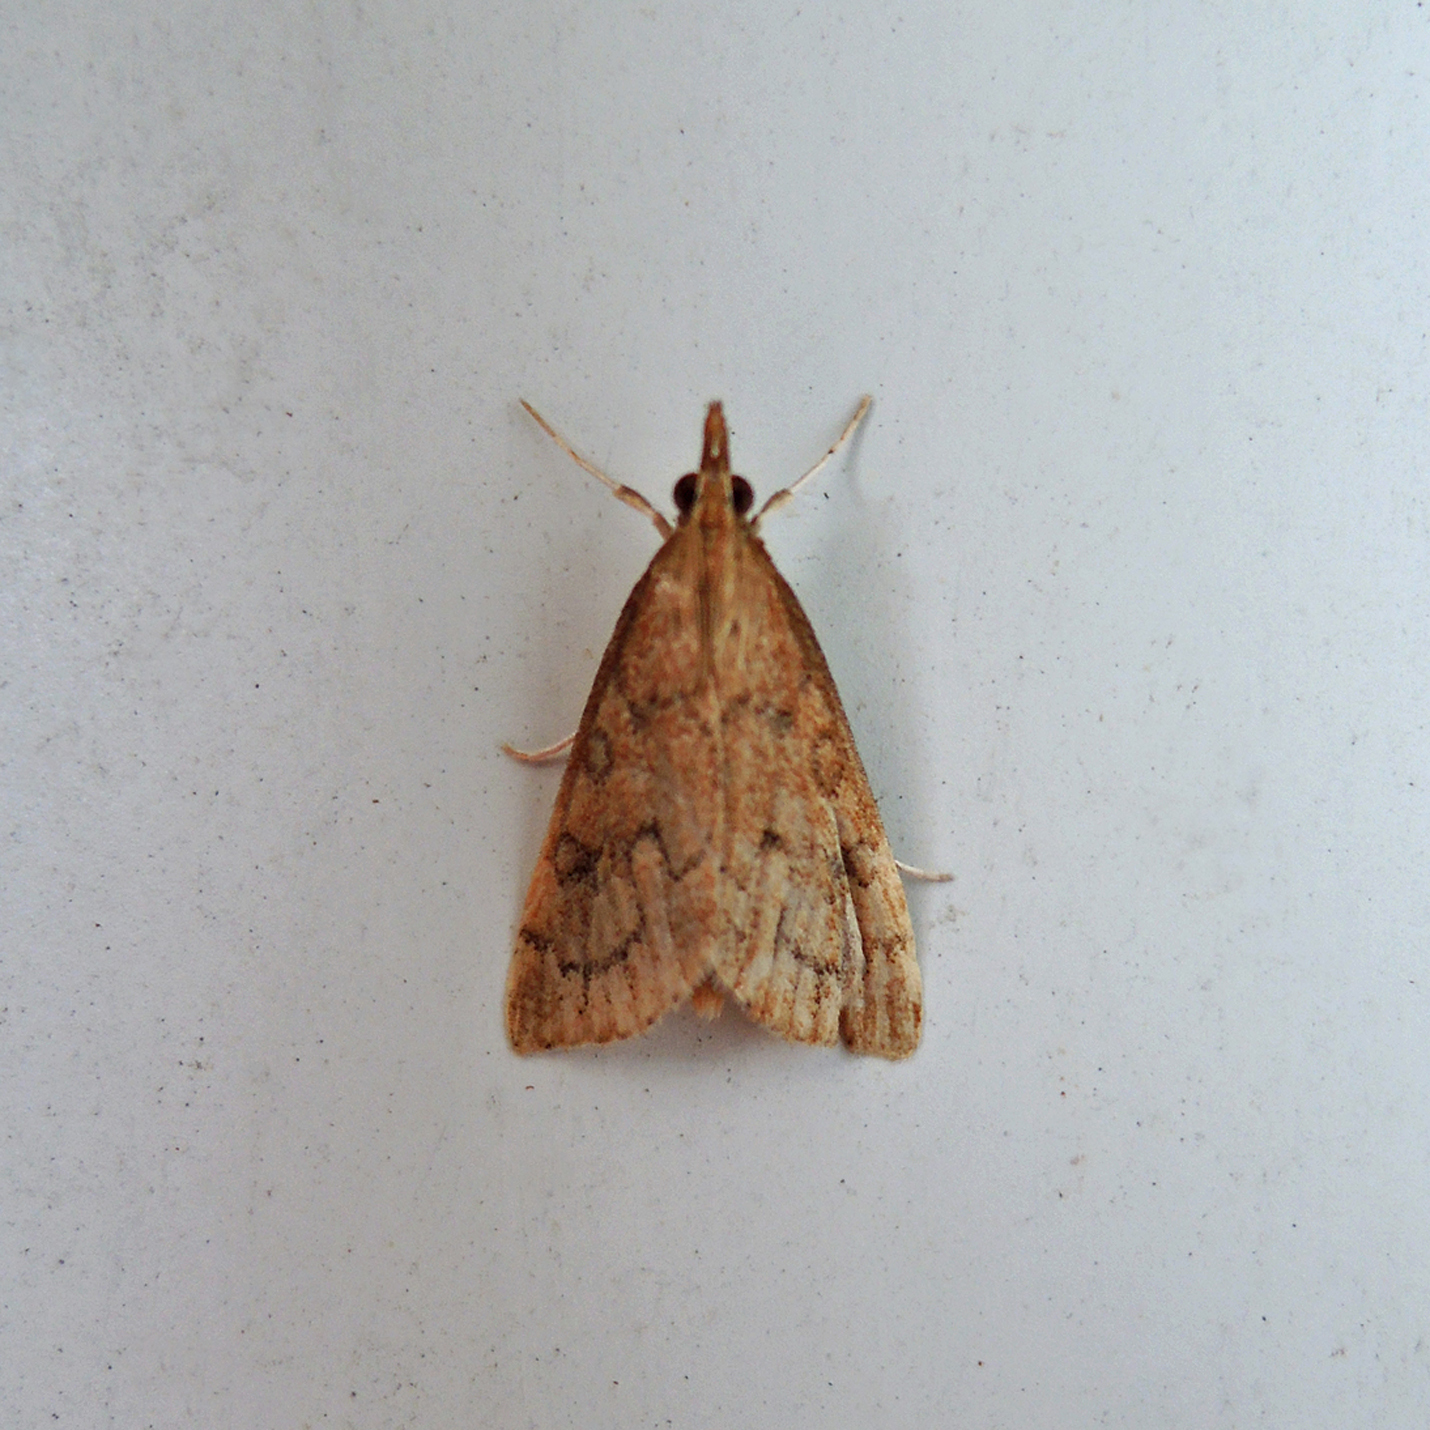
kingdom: Animalia
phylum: Arthropoda
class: Insecta
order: Lepidoptera
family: Crambidae
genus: Udea
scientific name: Udea rubigalis
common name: Celery leaftier moth
